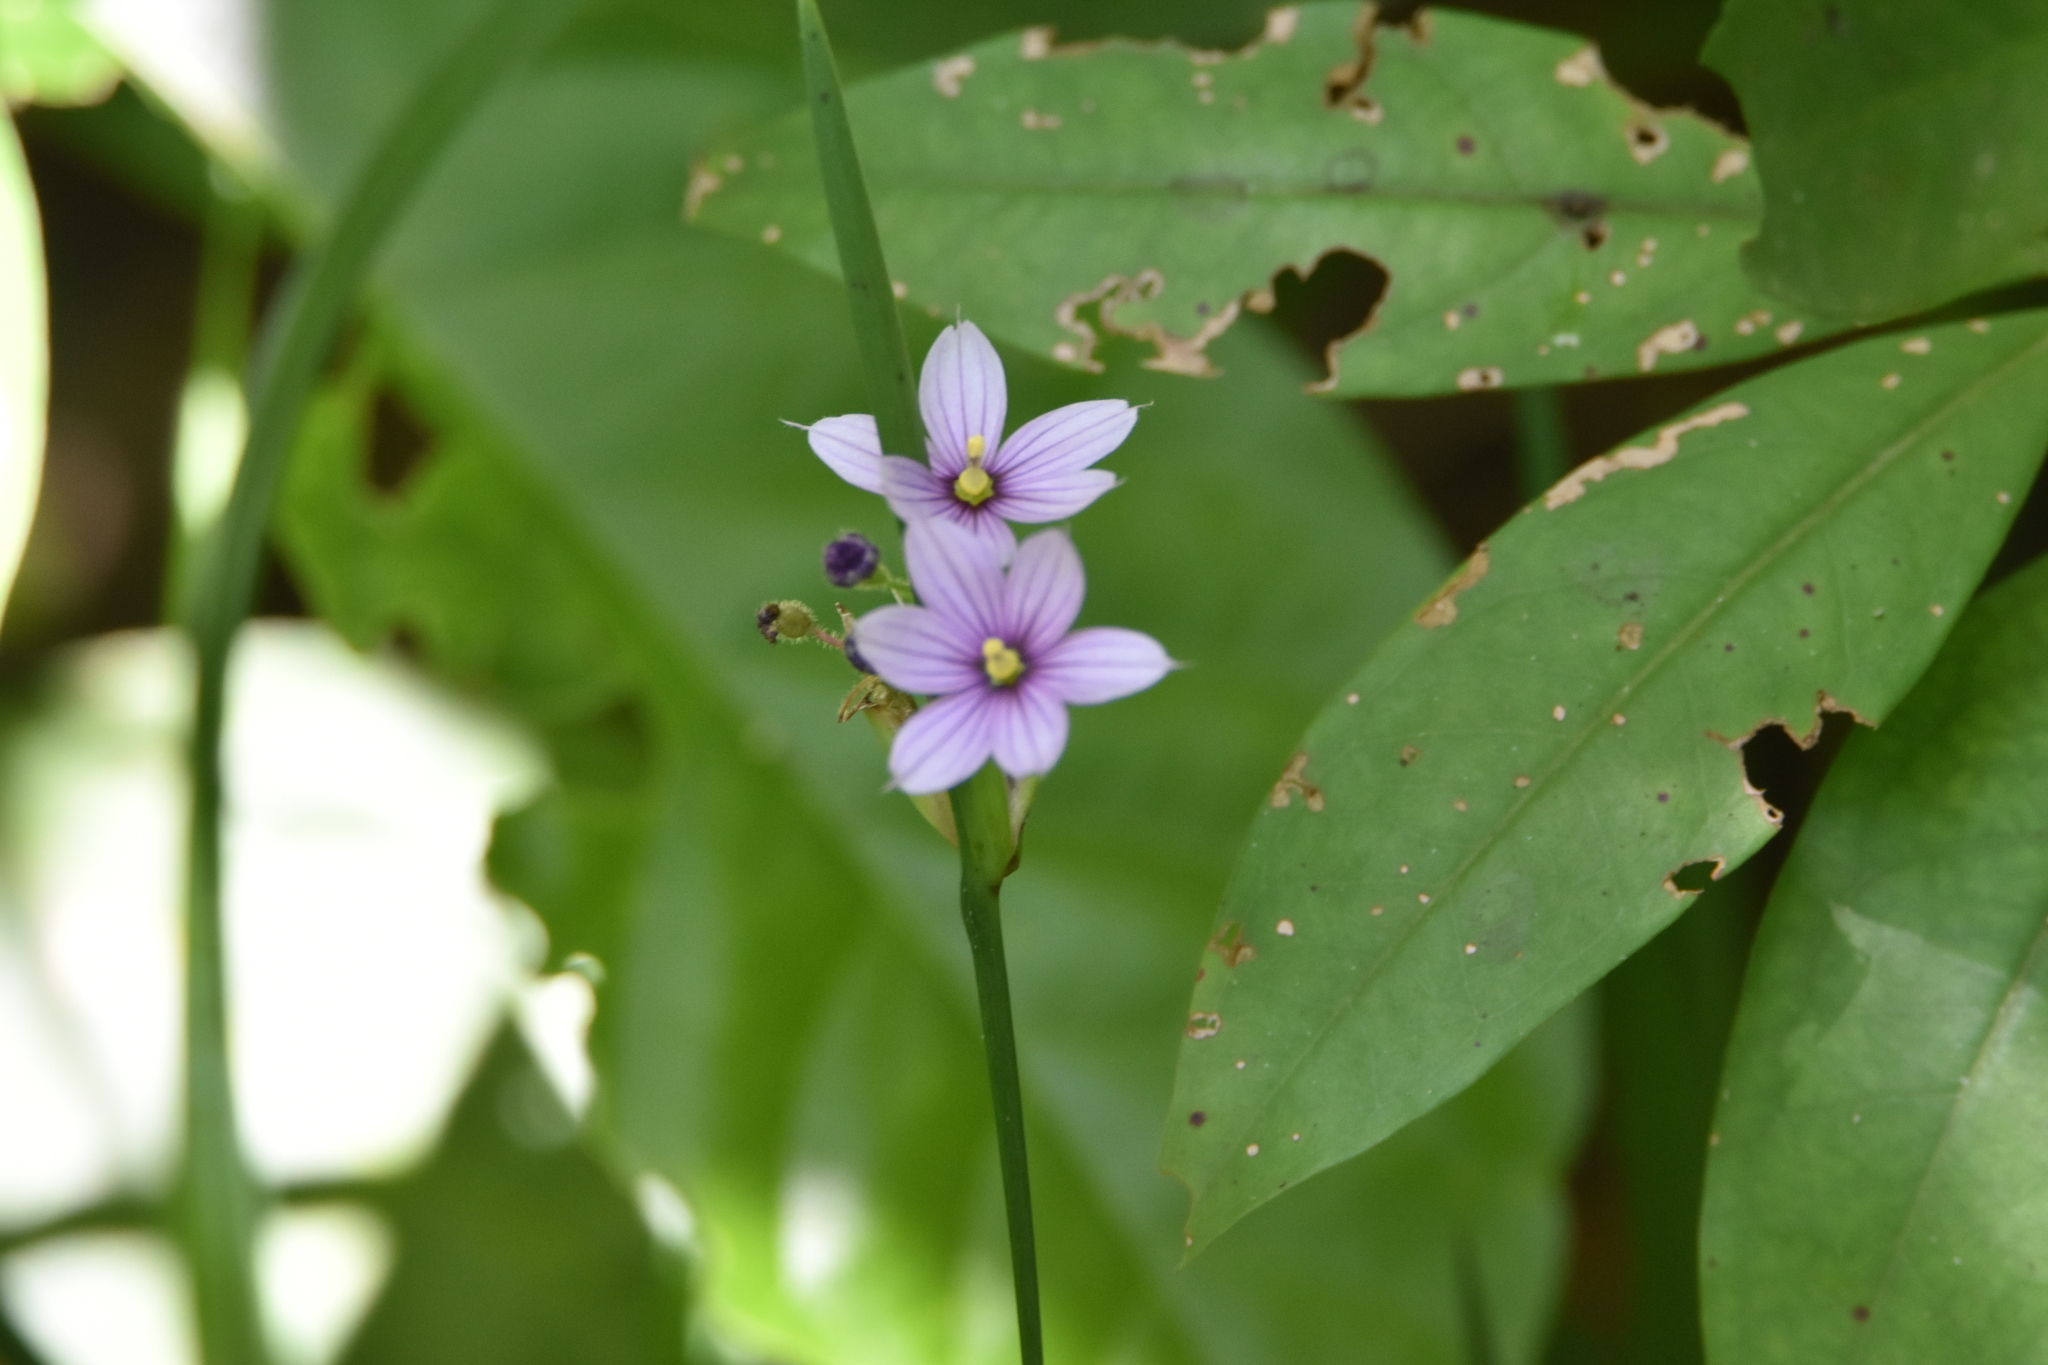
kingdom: Plantae
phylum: Tracheophyta
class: Liliopsida
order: Asparagales
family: Iridaceae
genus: Sisyrinchium
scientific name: Sisyrinchium soboliferum
